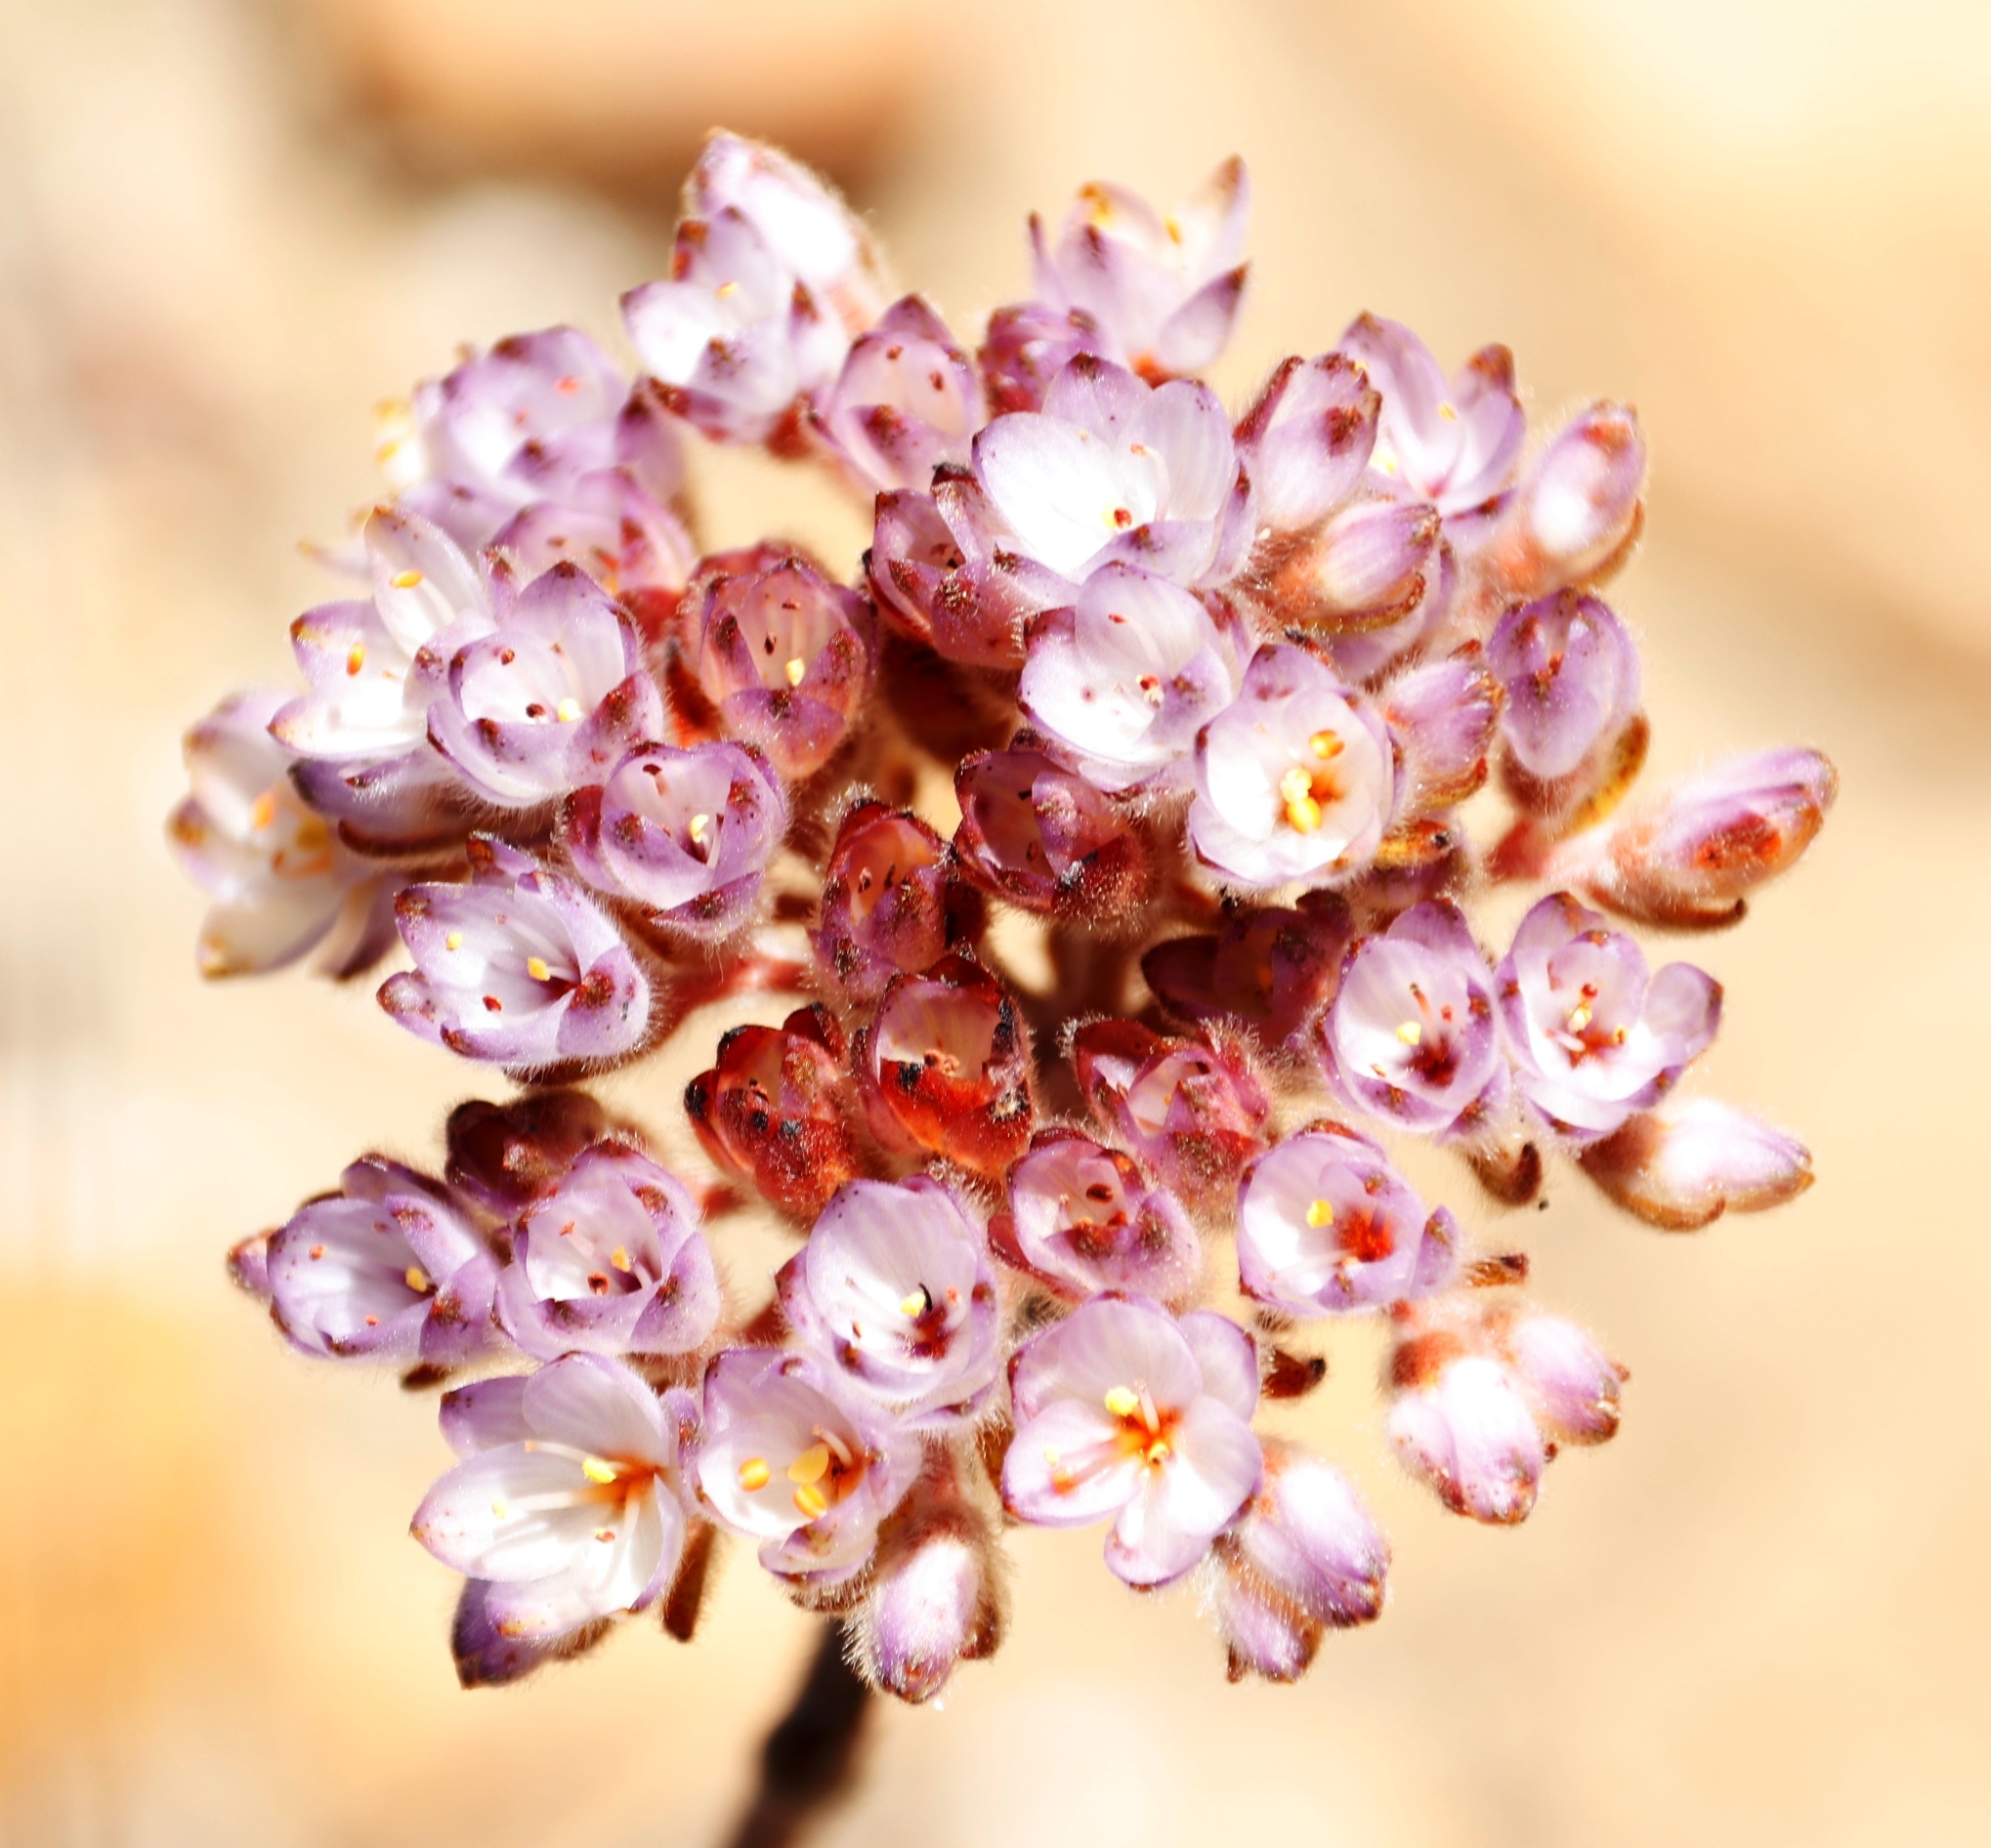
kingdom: Plantae
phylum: Tracheophyta
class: Liliopsida
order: Commelinales
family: Haemodoraceae
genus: Dilatris
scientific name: Dilatris pillansii
